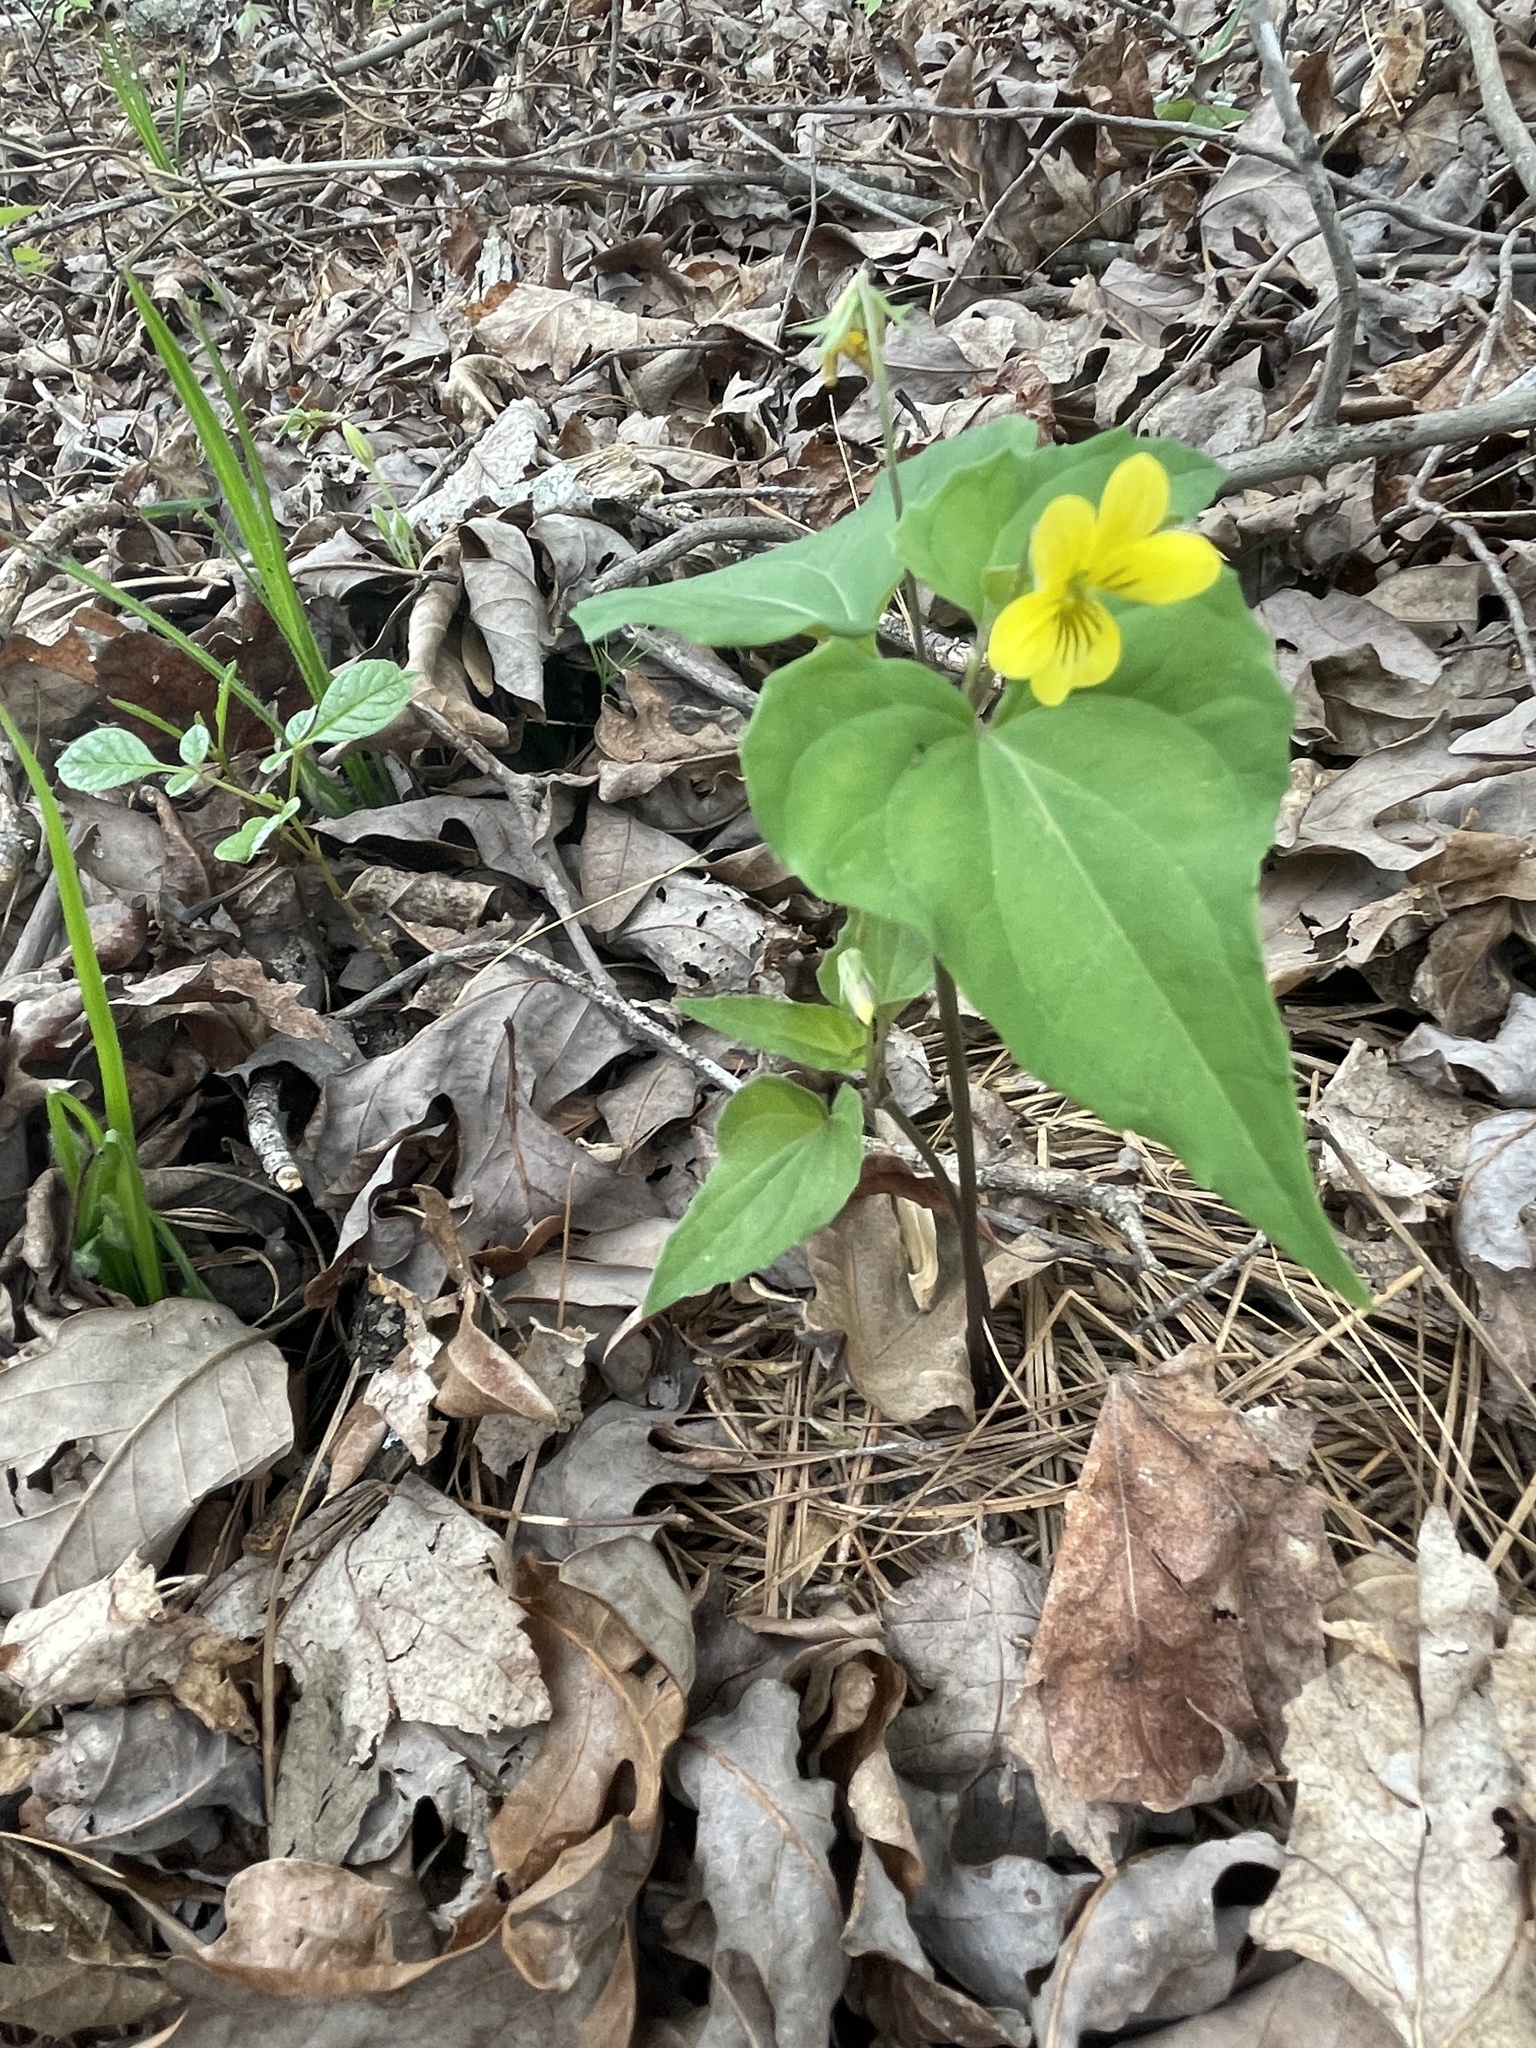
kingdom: Plantae
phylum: Tracheophyta
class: Magnoliopsida
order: Malpighiales
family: Violaceae
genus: Viola
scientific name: Viola hastata
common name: Spear-leaf violet
